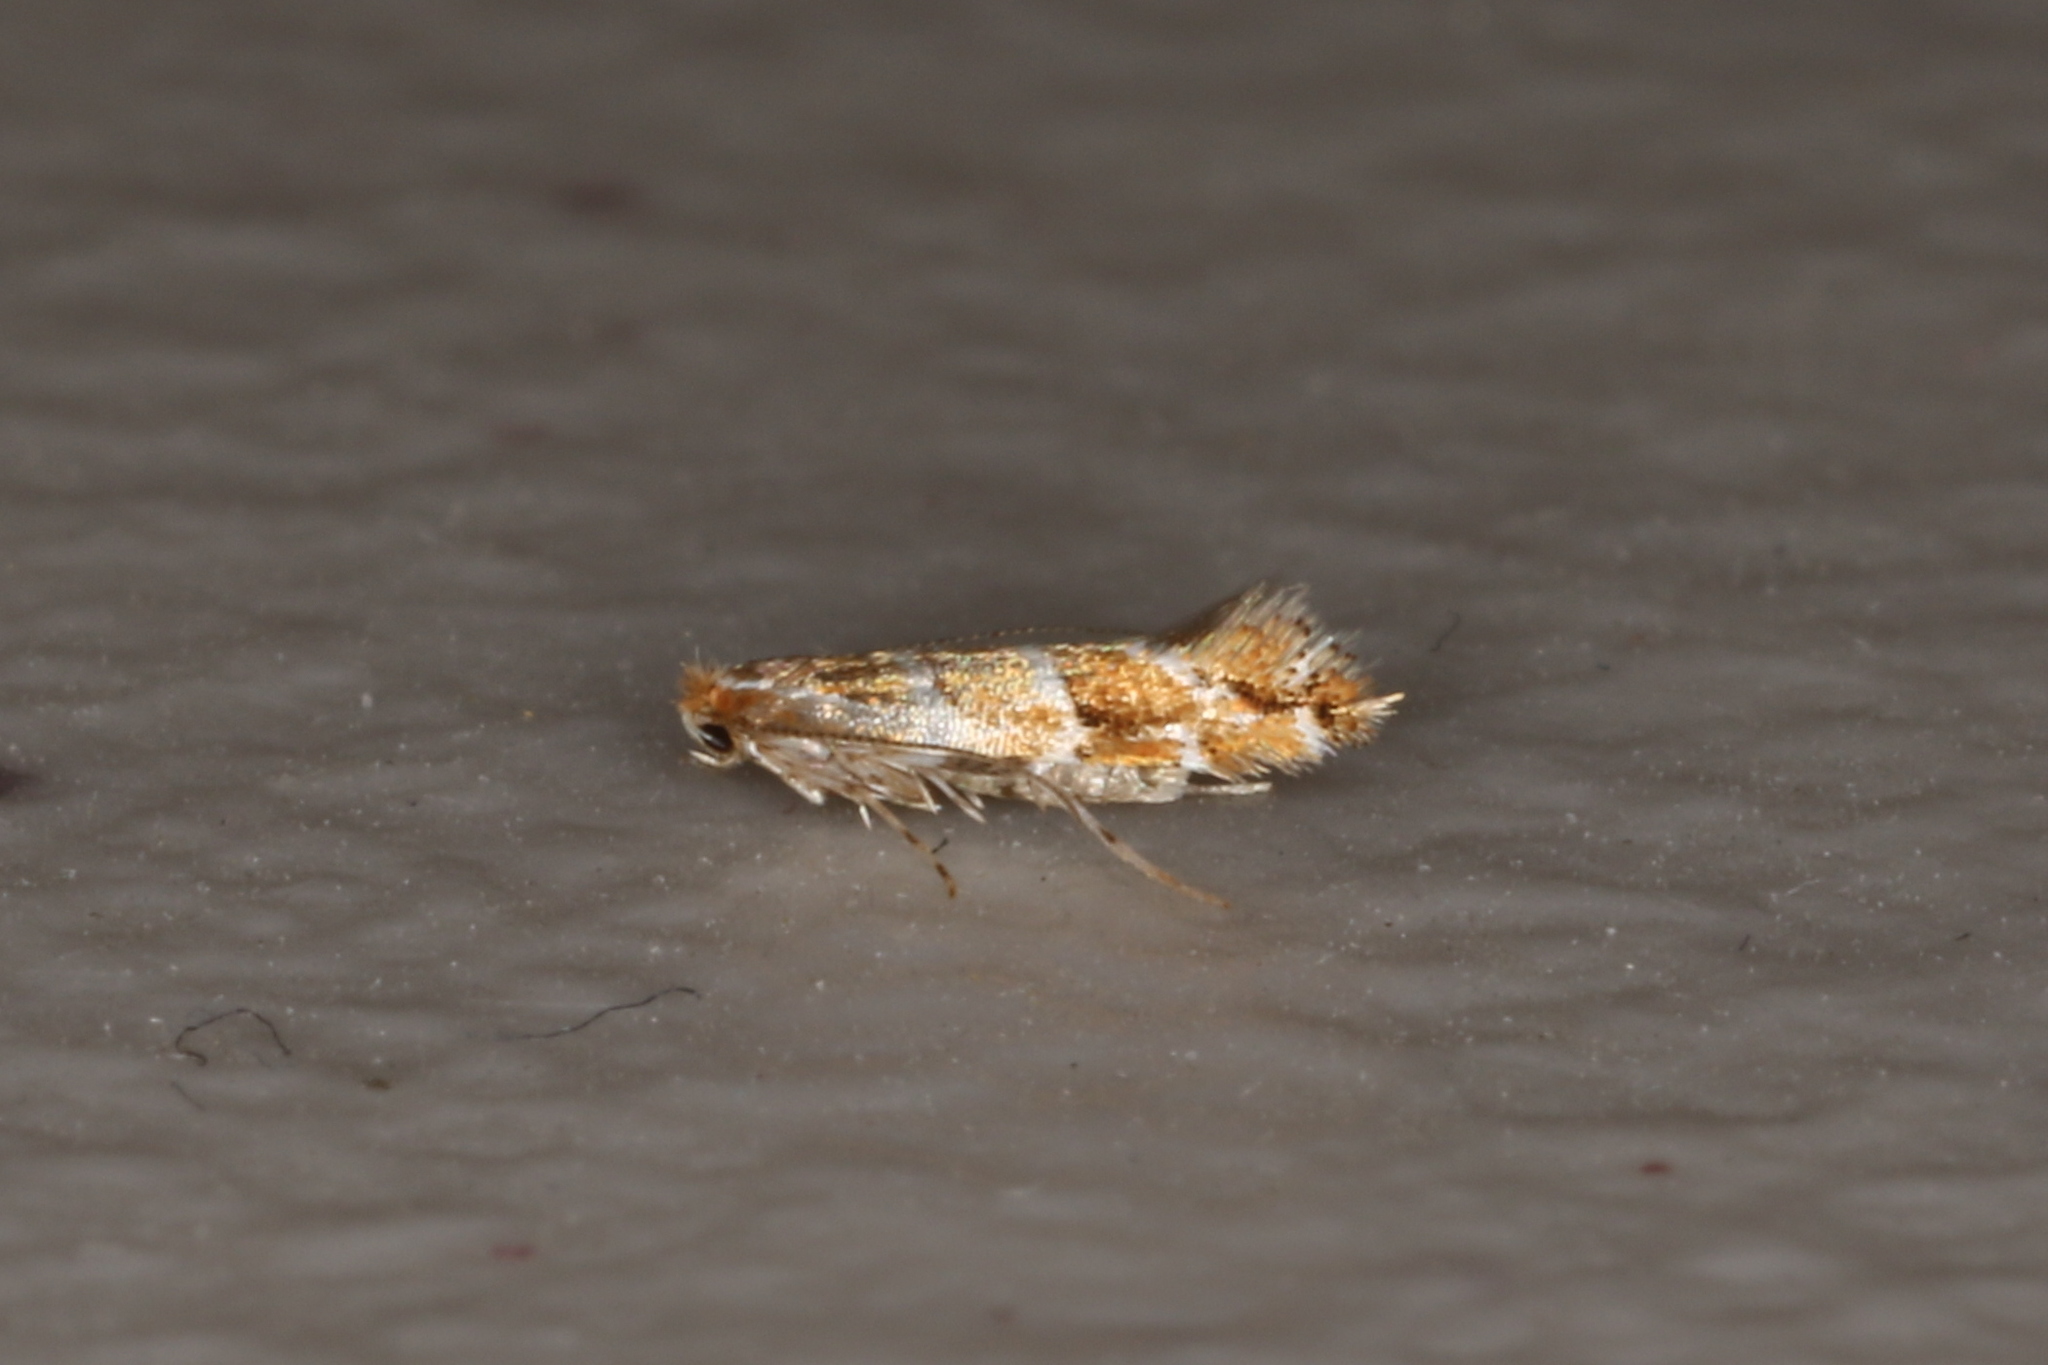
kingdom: Animalia
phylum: Arthropoda
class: Insecta
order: Lepidoptera
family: Gracillariidae
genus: Cameraria
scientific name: Cameraria ohridella
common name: Horse-chestnut leaf-miner
